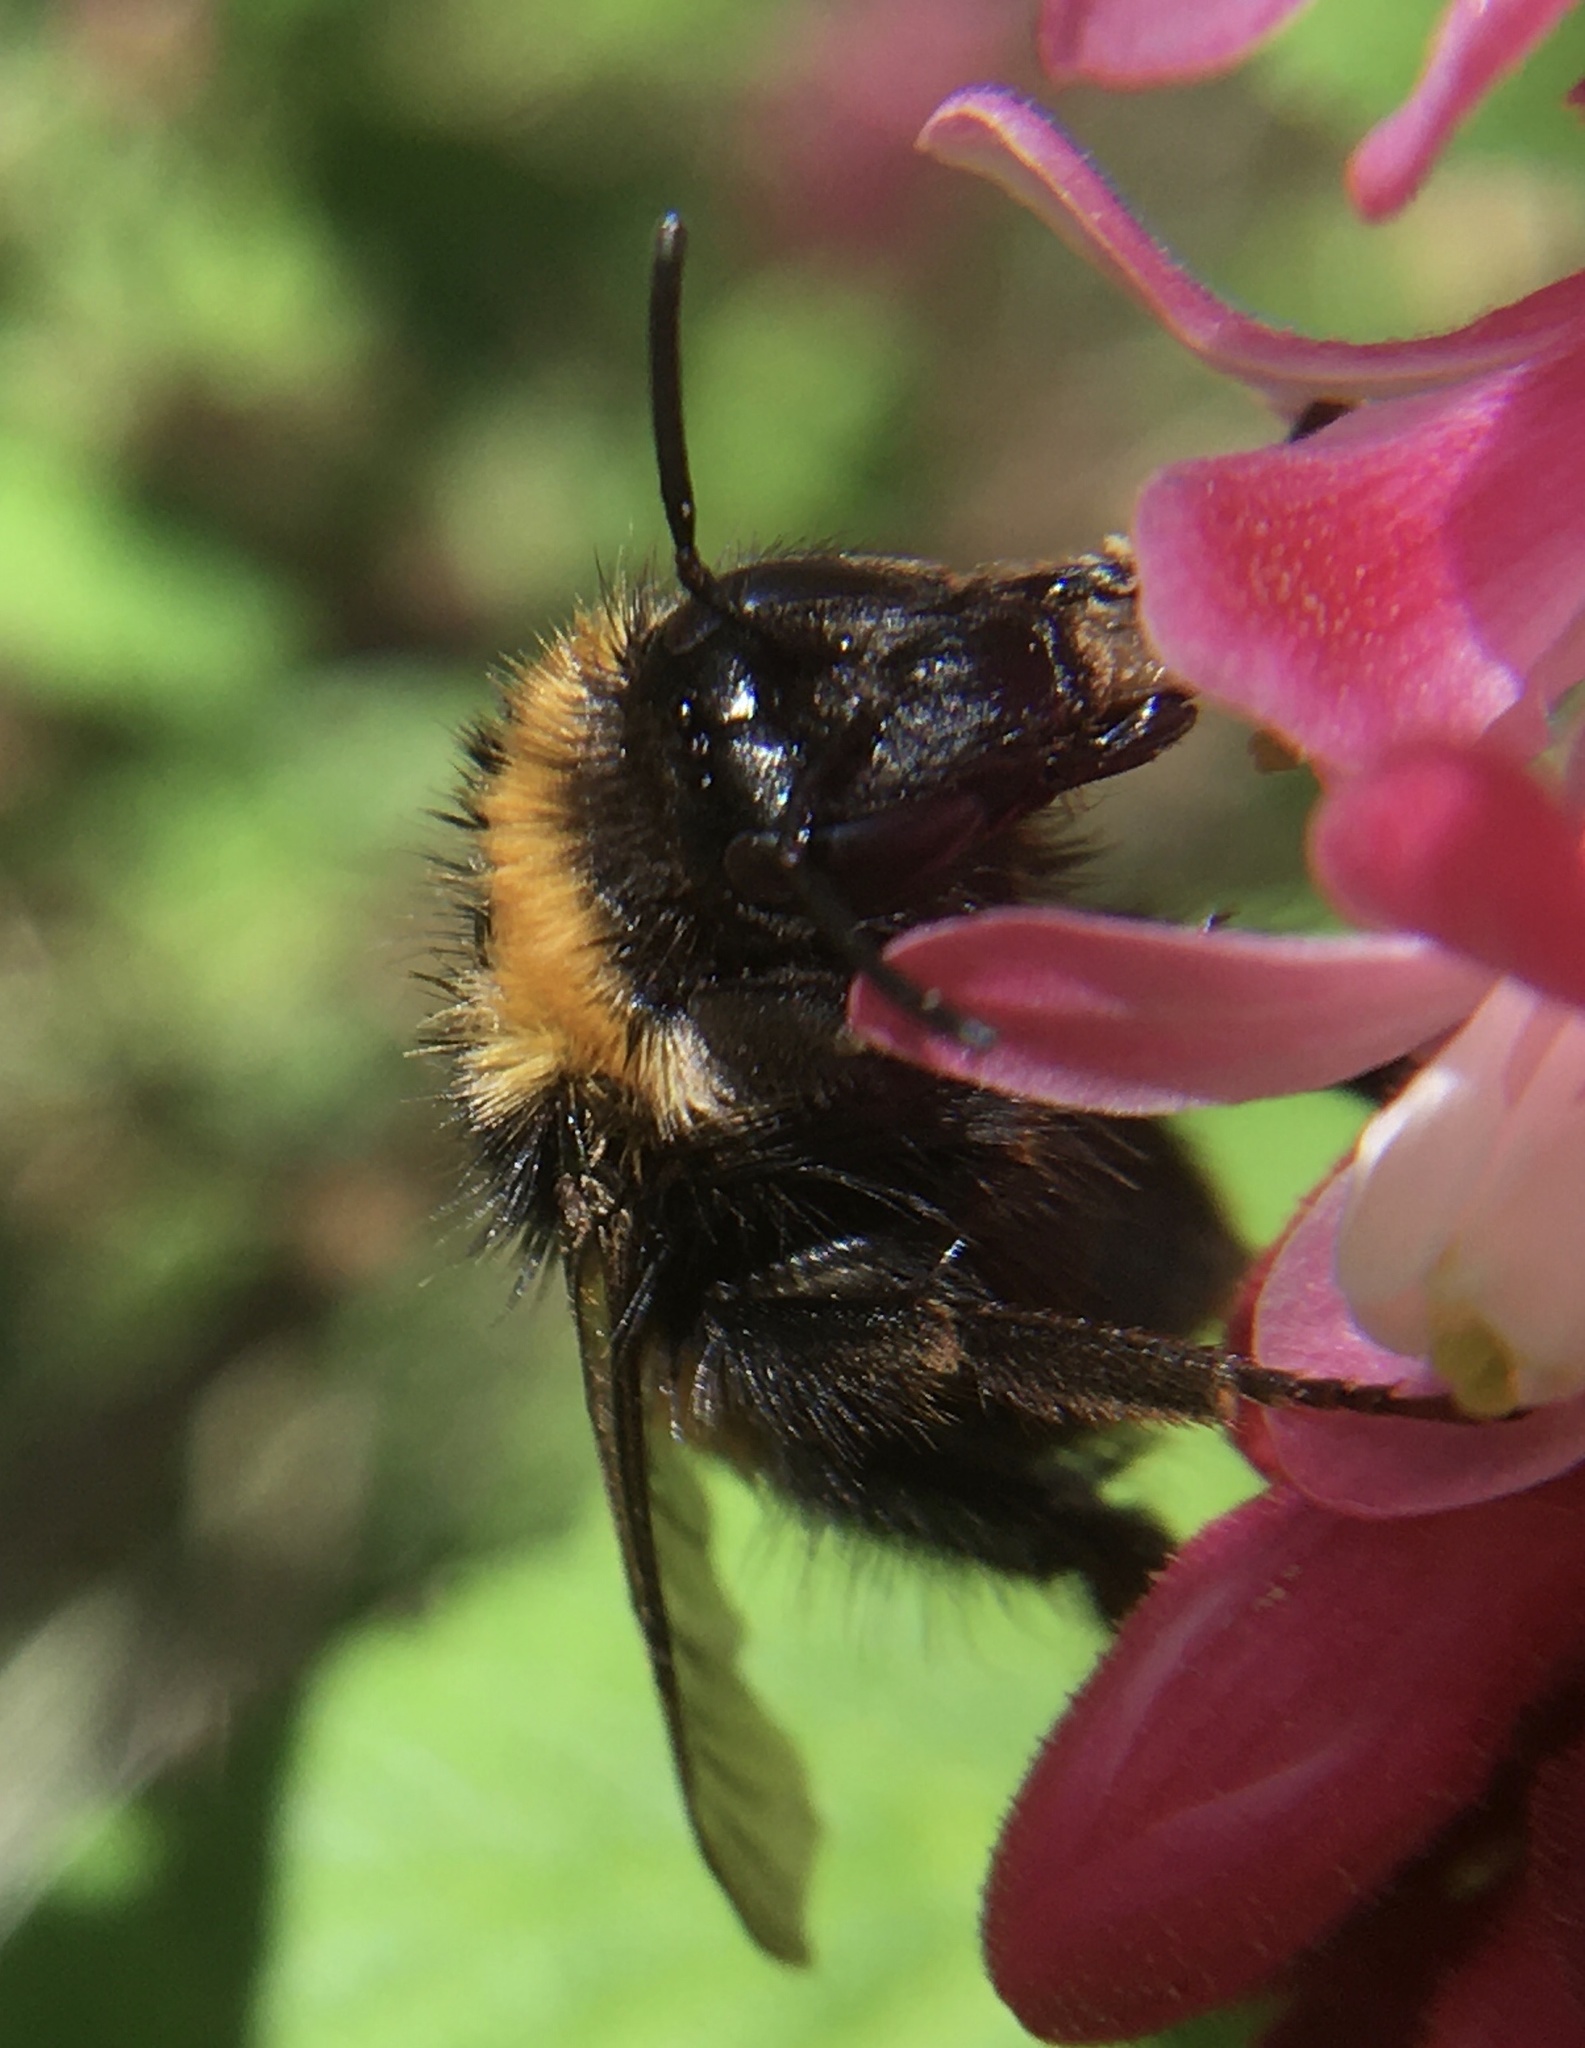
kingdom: Animalia
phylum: Arthropoda
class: Insecta
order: Hymenoptera
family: Apidae
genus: Bombus
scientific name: Bombus pratorum
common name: Early humble-bee
